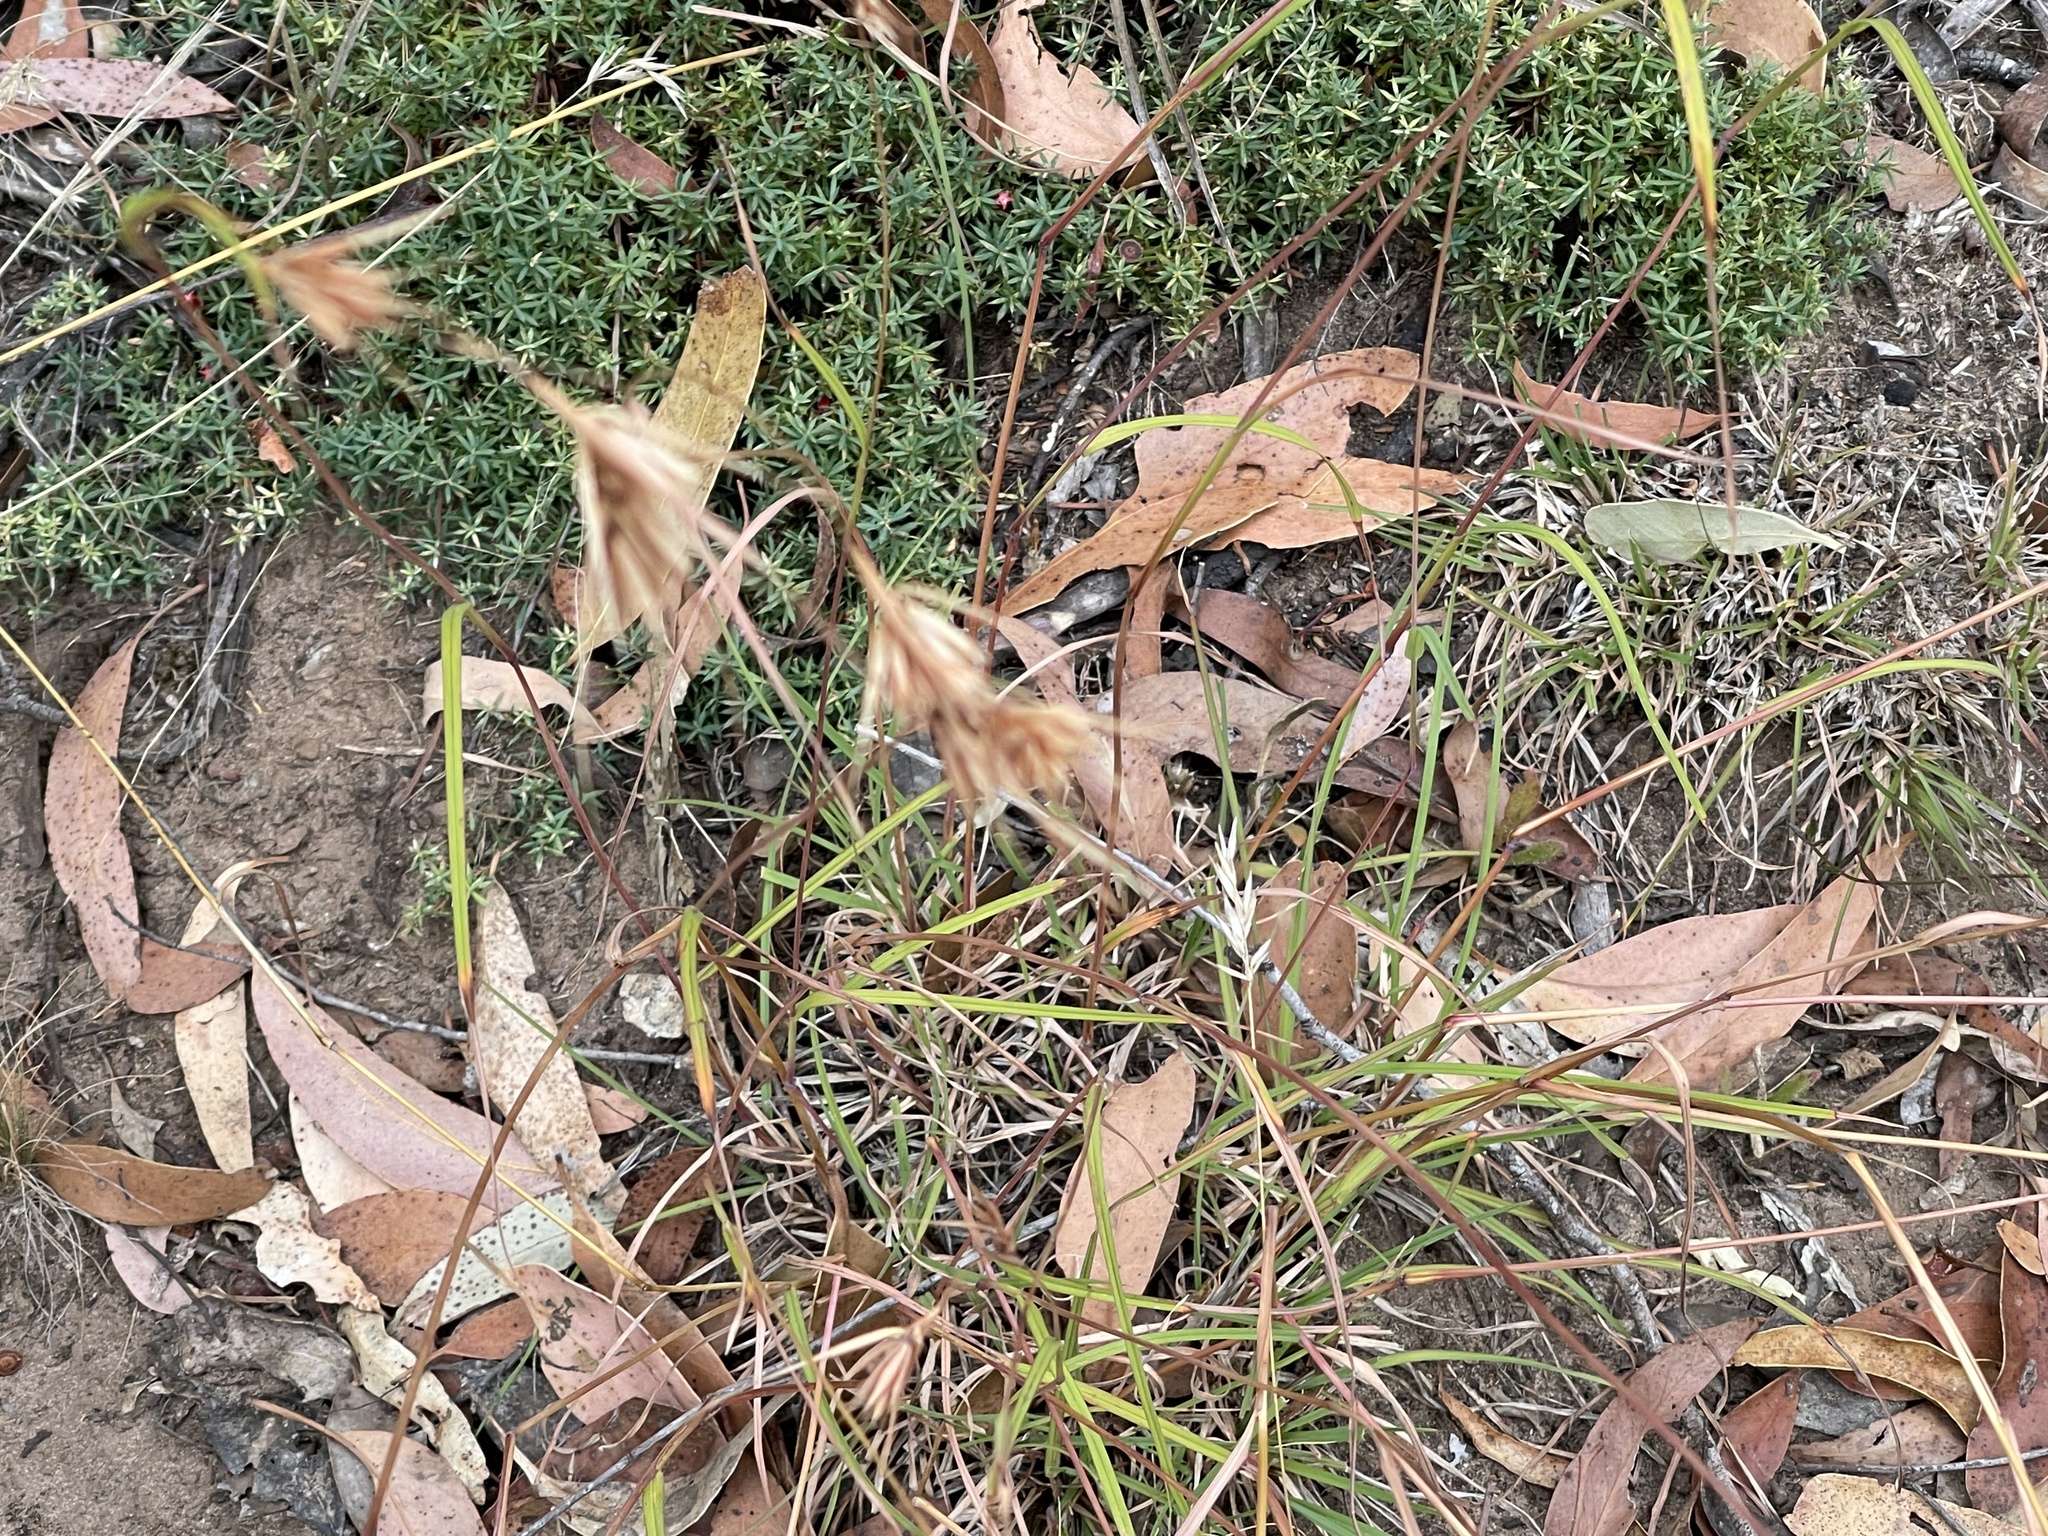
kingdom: Plantae
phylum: Tracheophyta
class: Liliopsida
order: Poales
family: Poaceae
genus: Themeda
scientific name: Themeda triandra
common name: Kangaroo grass
